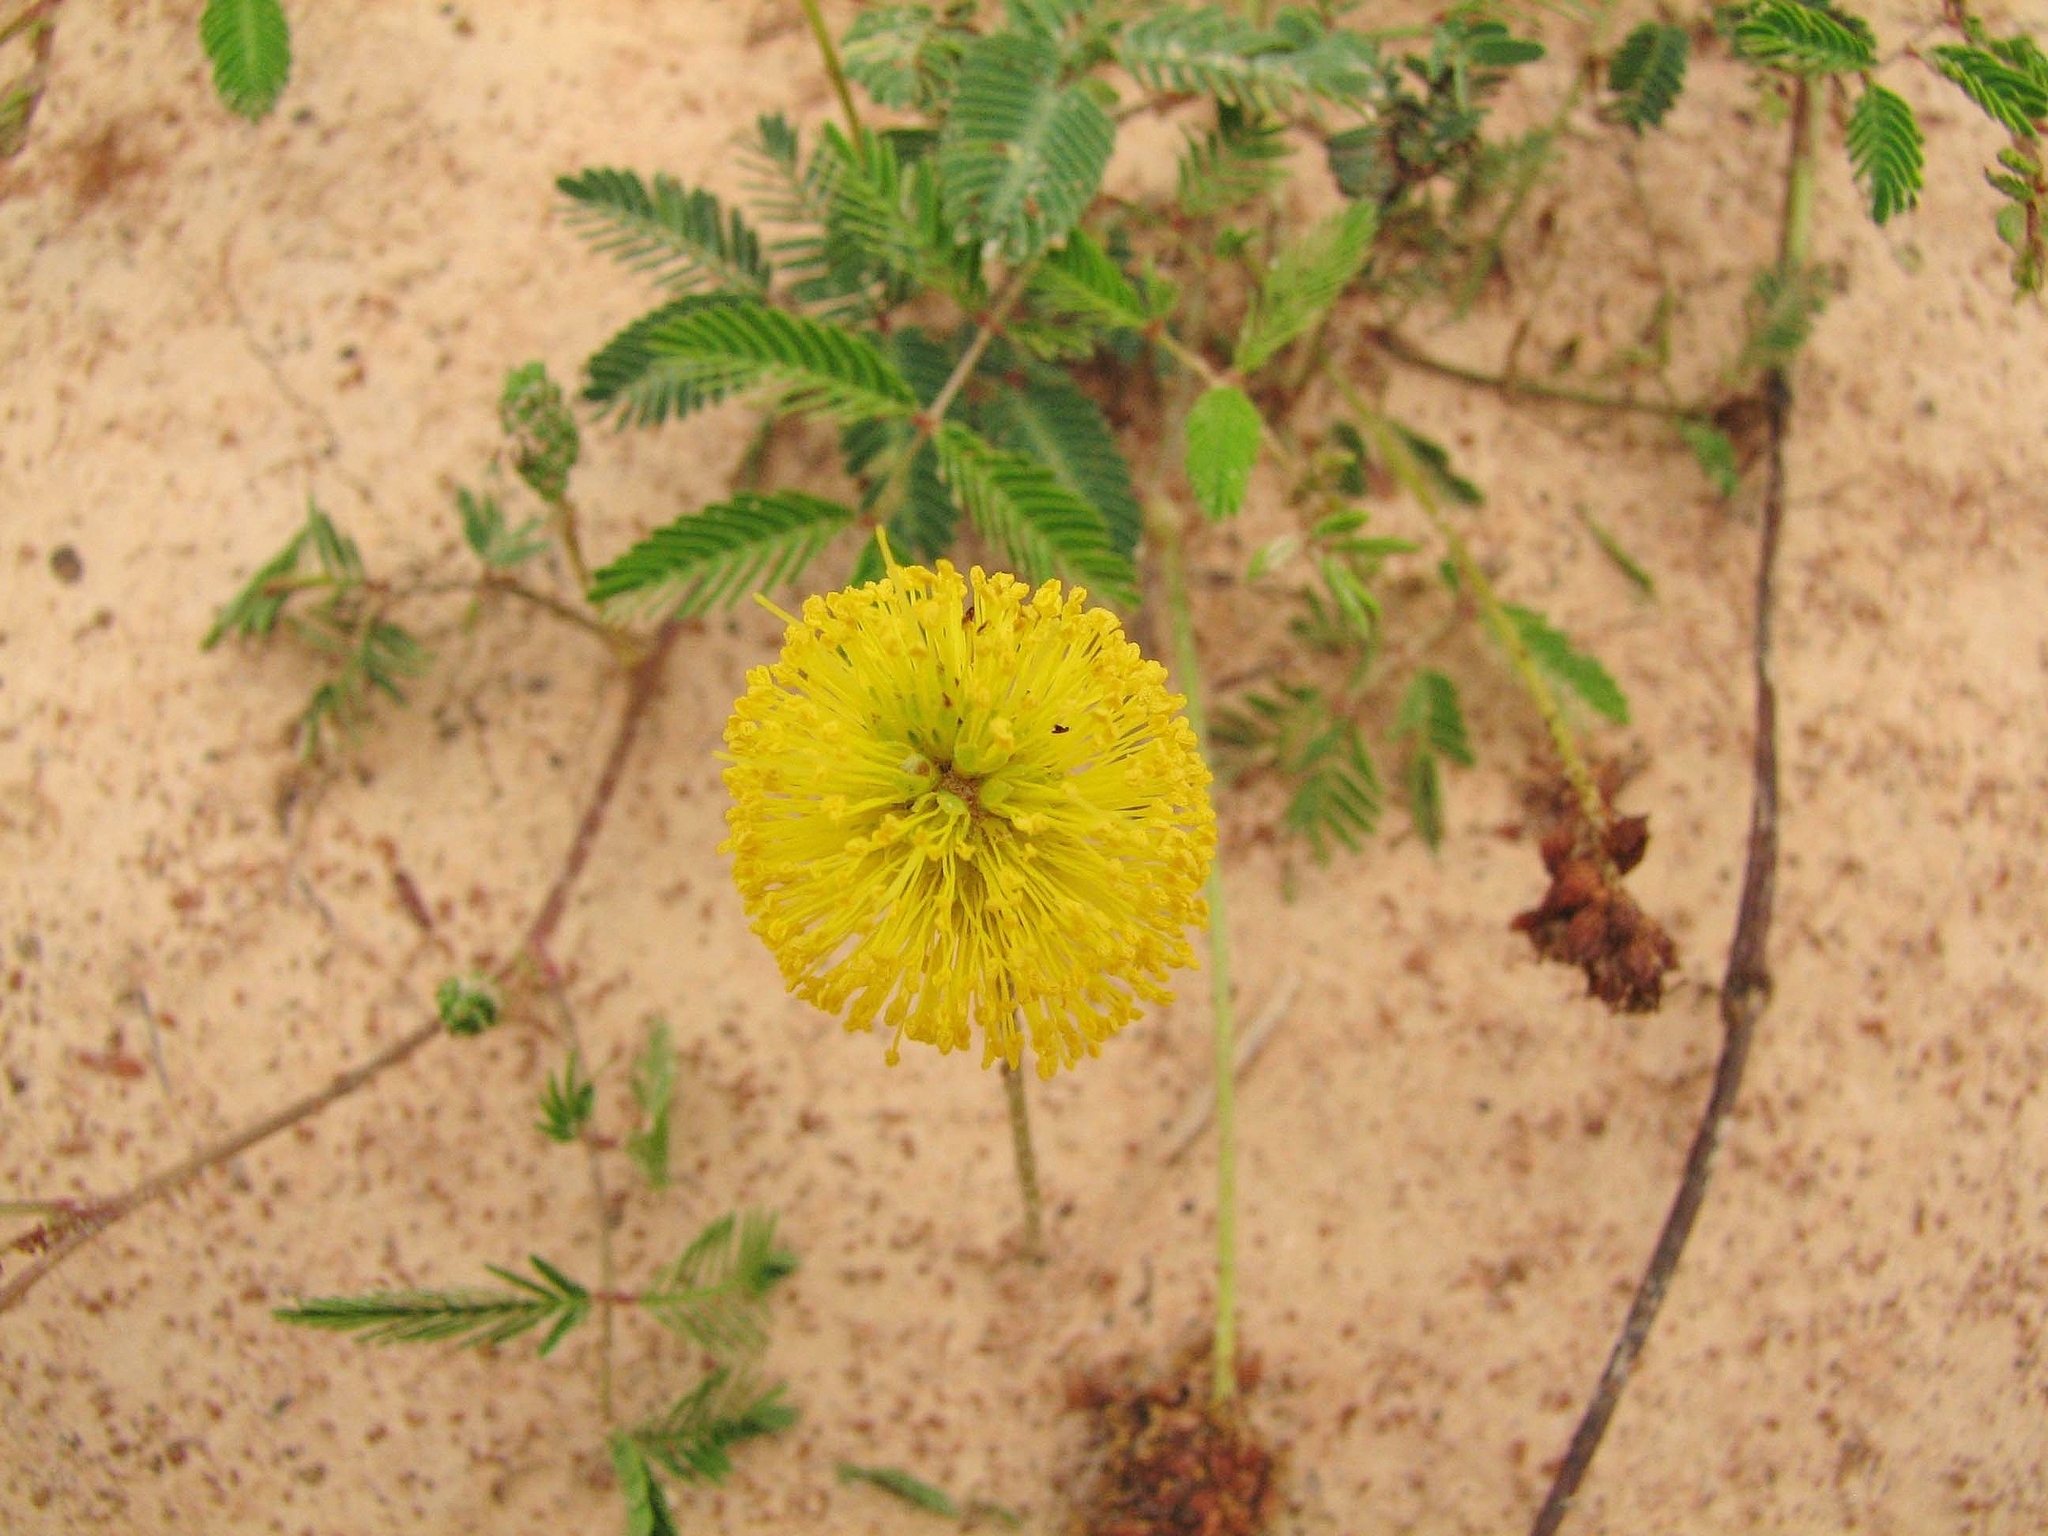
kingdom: Plantae
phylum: Tracheophyta
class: Magnoliopsida
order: Fabales
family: Fabaceae
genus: Neptunia
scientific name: Neptunia lutea
